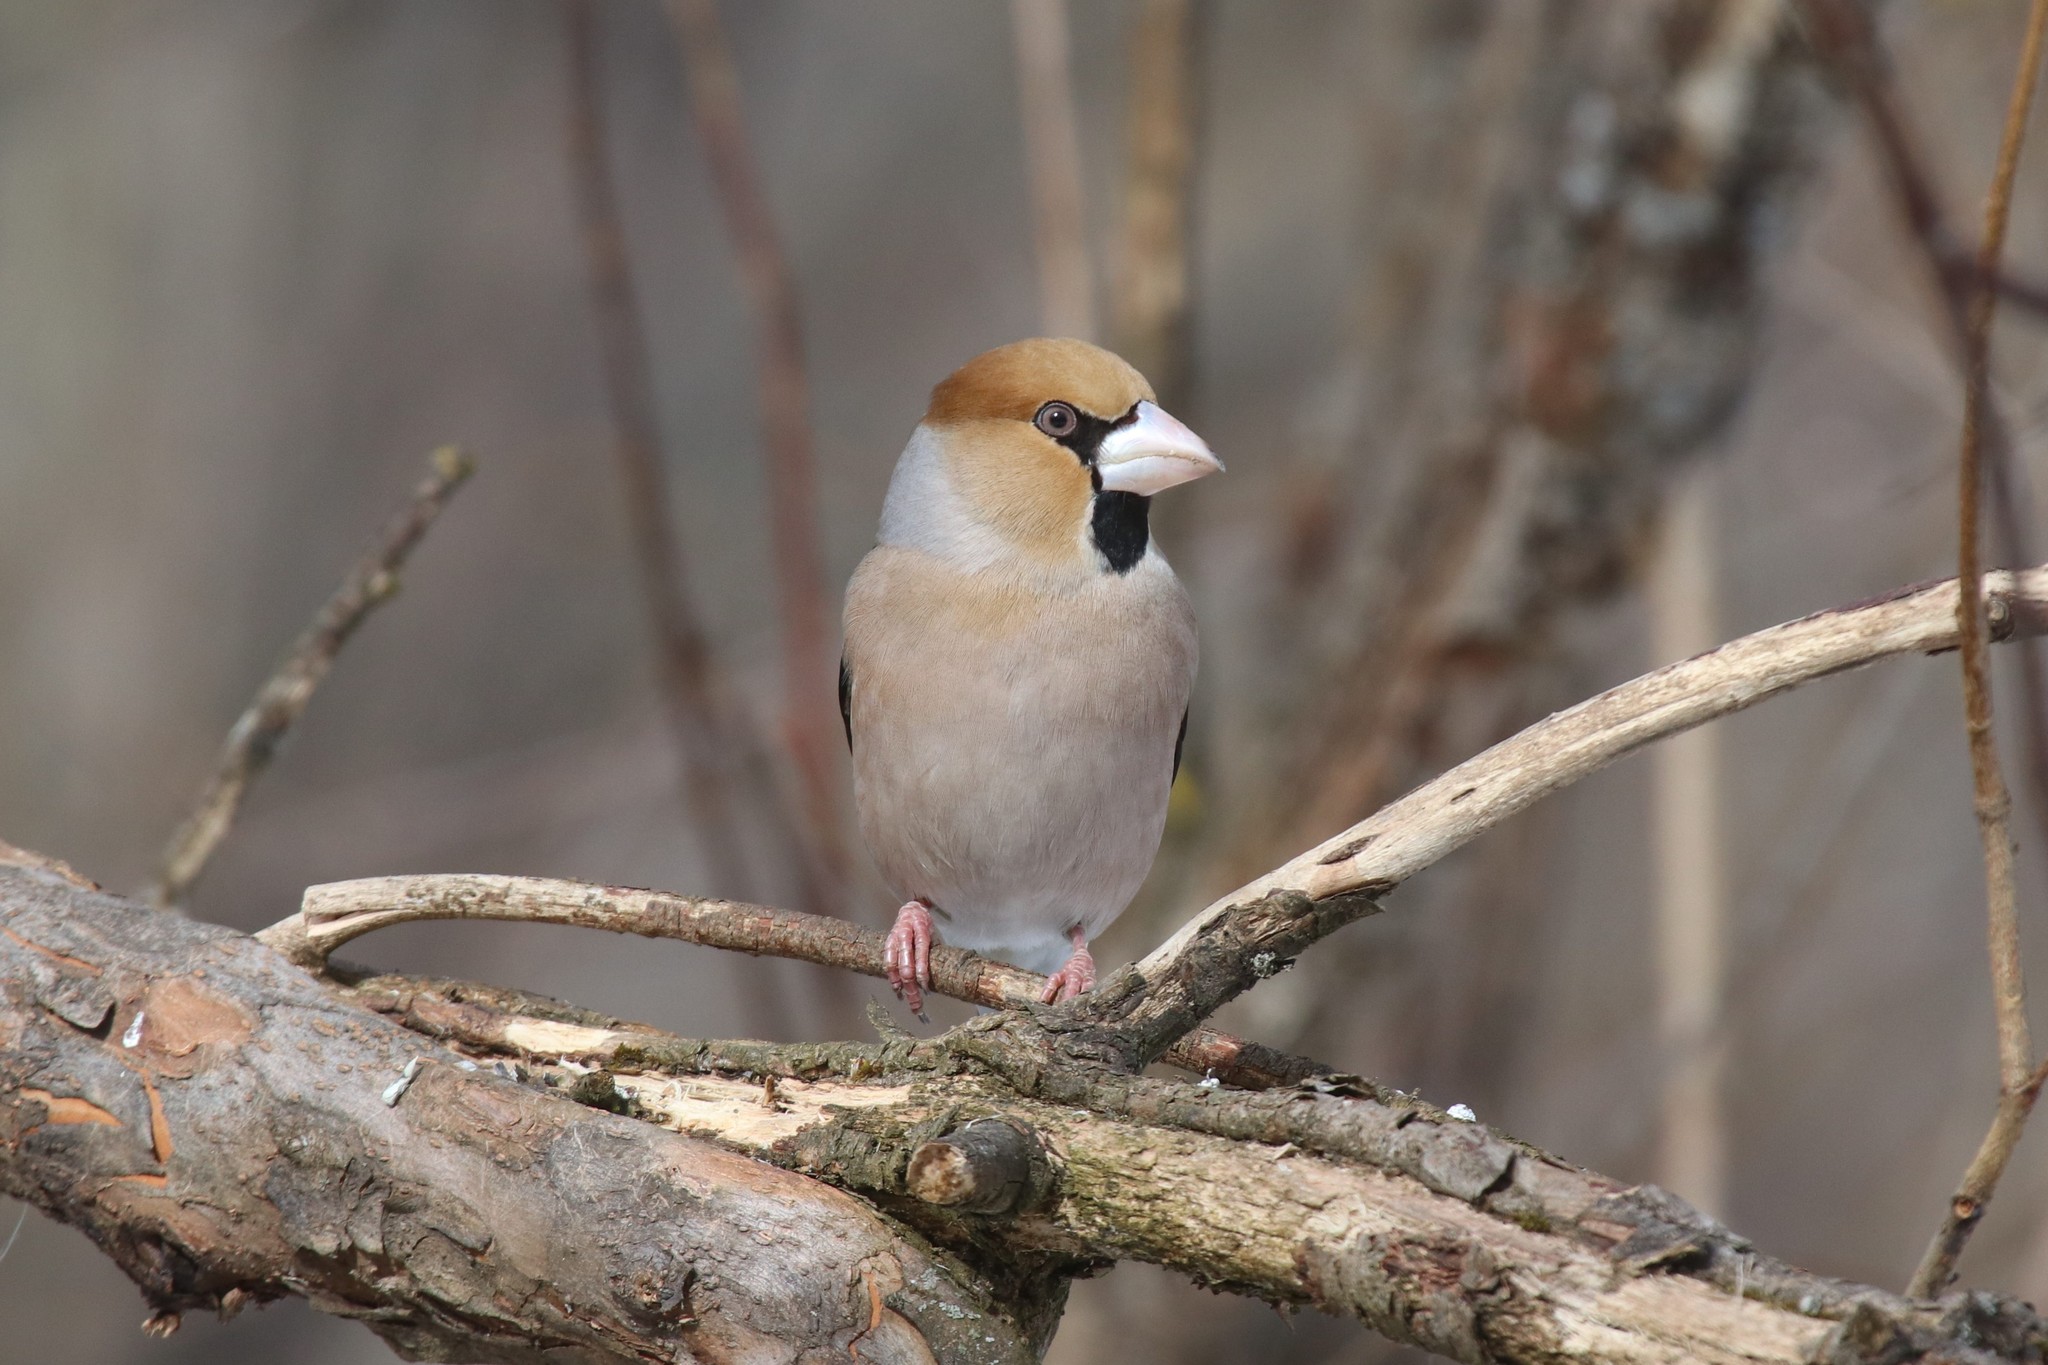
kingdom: Animalia
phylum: Chordata
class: Aves
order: Passeriformes
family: Fringillidae
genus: Coccothraustes
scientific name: Coccothraustes coccothraustes
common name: Hawfinch
